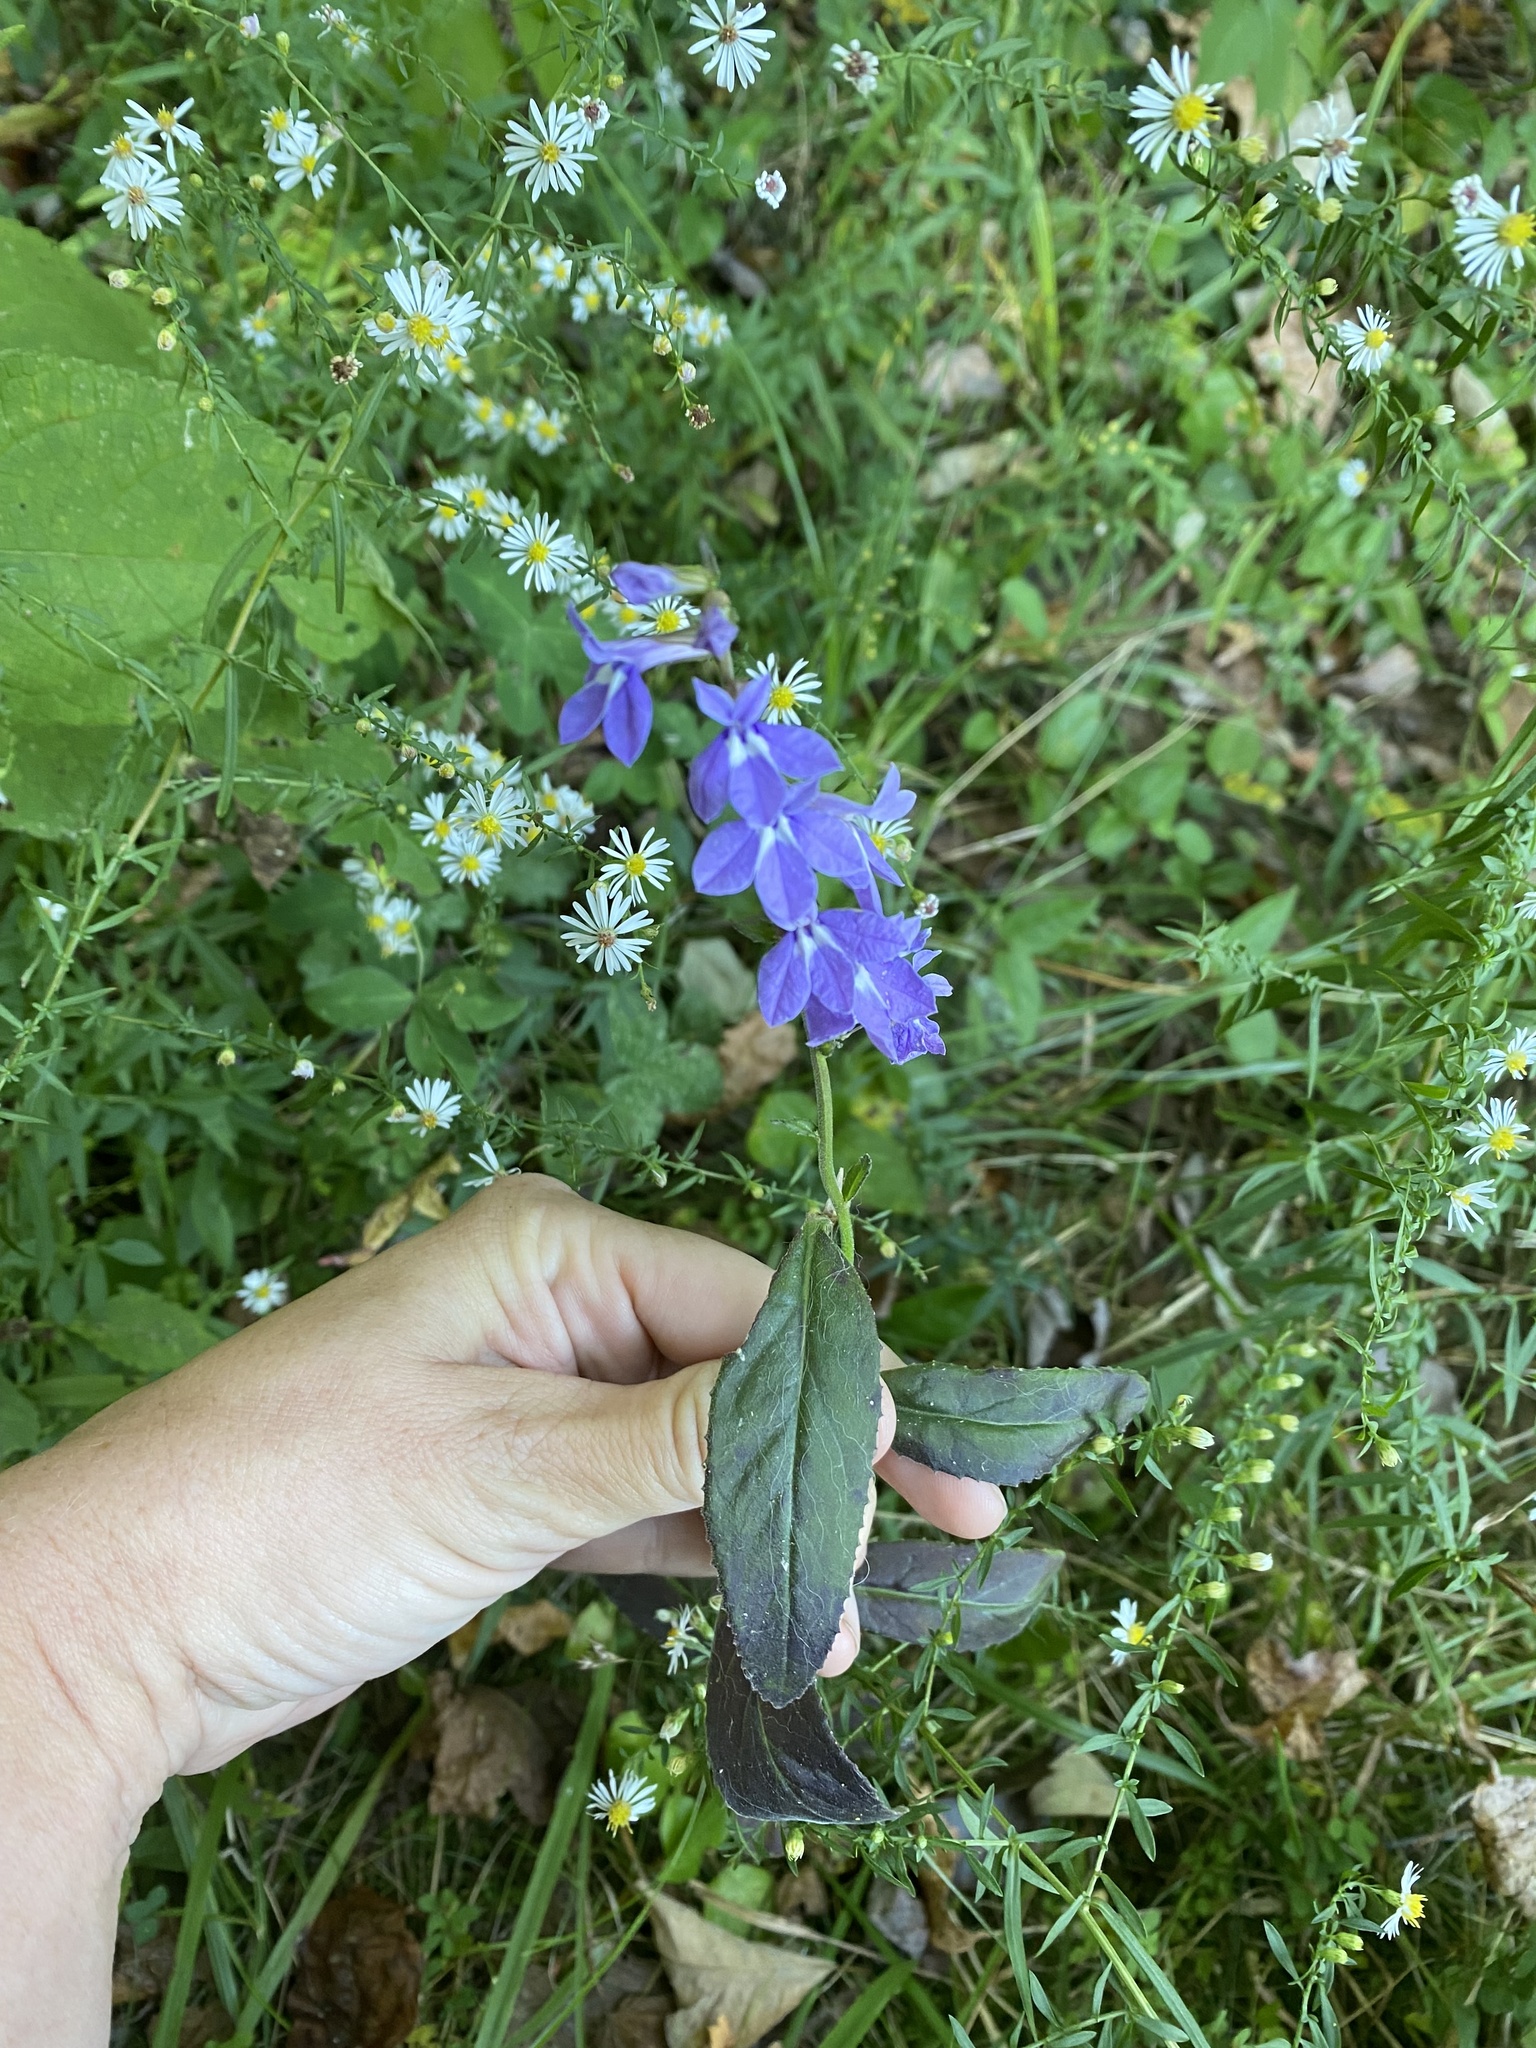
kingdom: Plantae
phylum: Tracheophyta
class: Magnoliopsida
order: Asterales
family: Campanulaceae
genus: Lobelia
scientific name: Lobelia puberula
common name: Purple dewdrop
